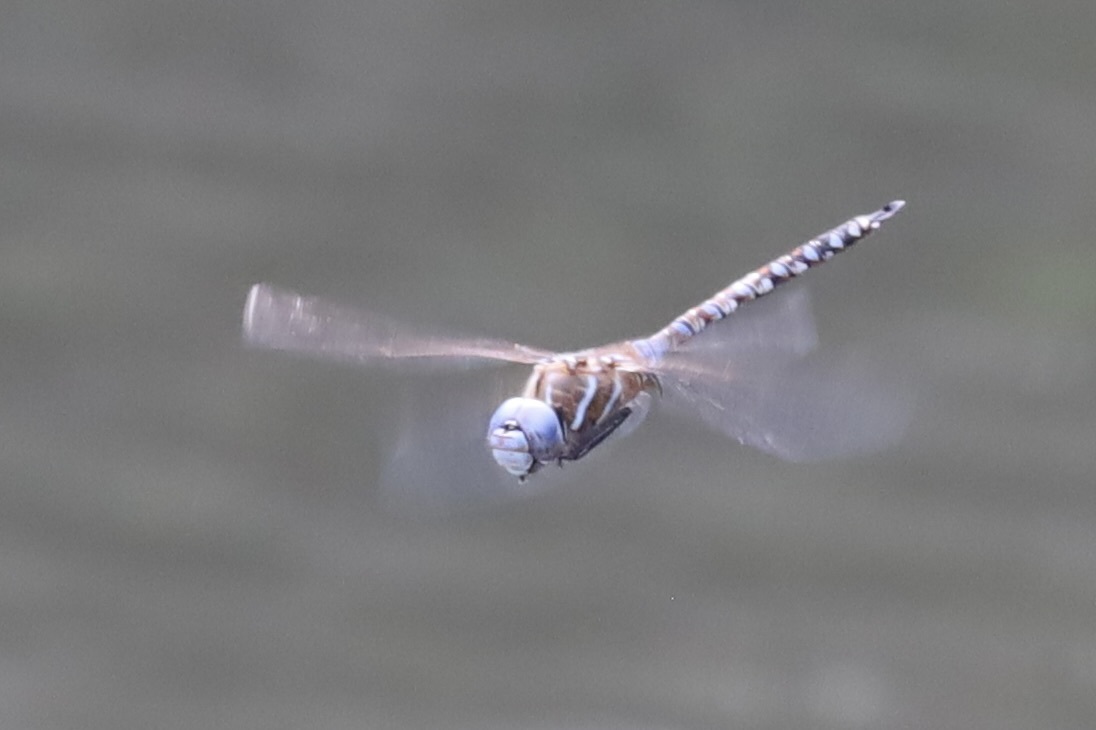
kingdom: Animalia
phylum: Arthropoda
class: Insecta
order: Odonata
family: Aeshnidae
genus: Rhionaeschna
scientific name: Rhionaeschna multicolor
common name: Blue-eyed darner
